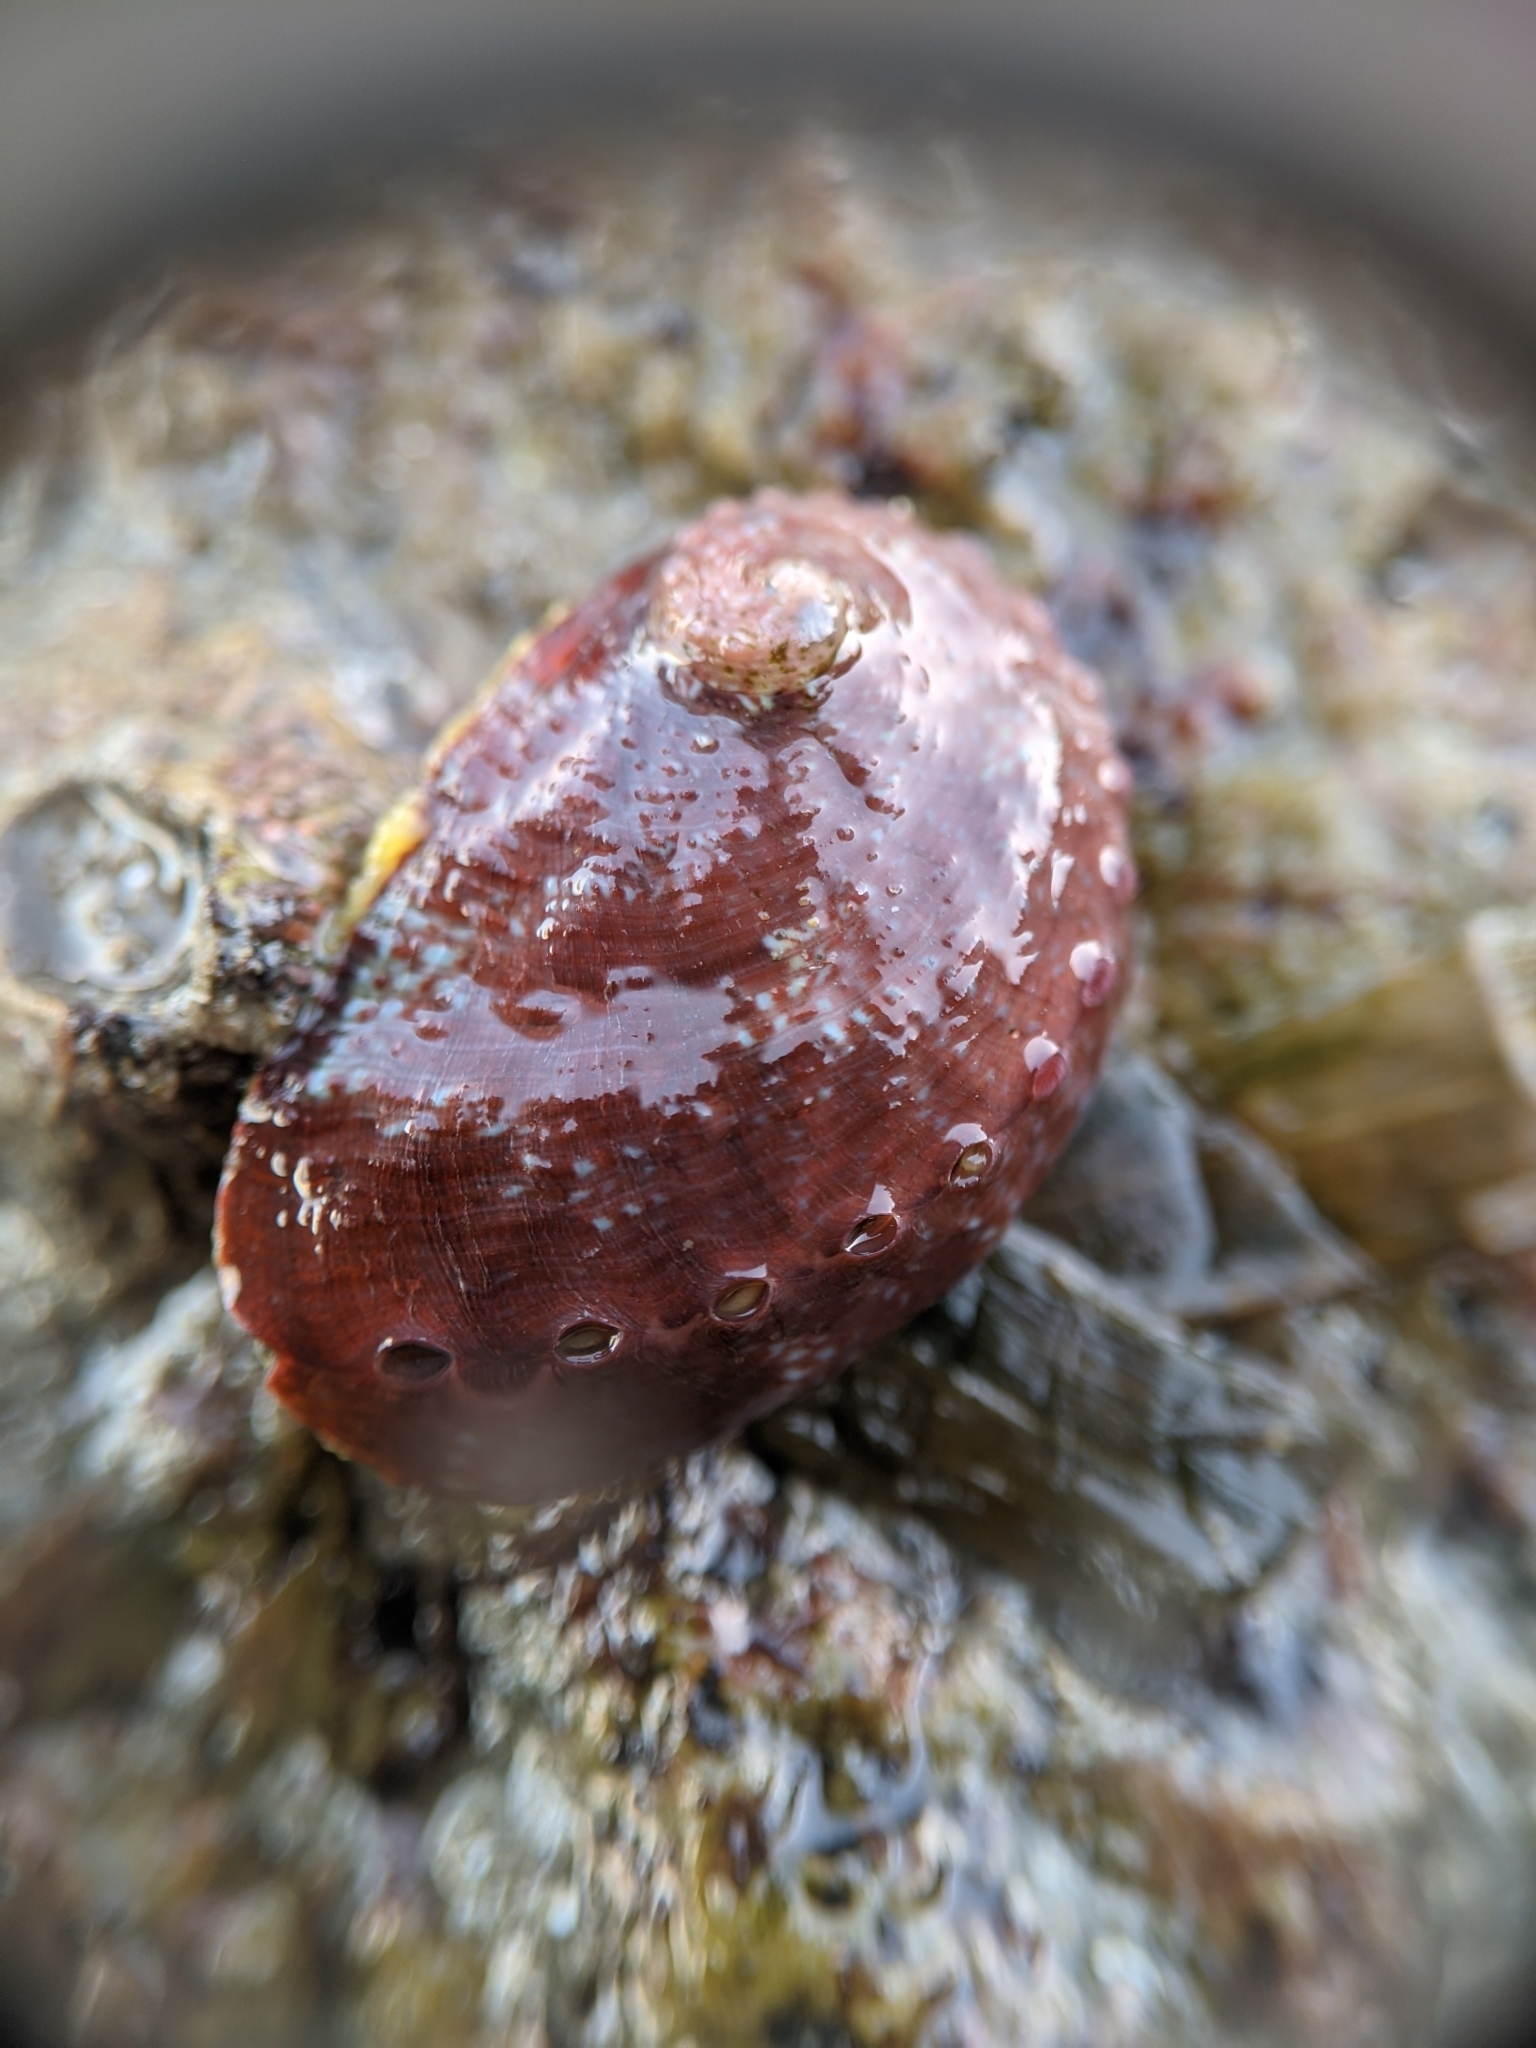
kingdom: Animalia
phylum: Mollusca
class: Gastropoda
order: Lepetellida
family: Haliotidae
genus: Haliotis
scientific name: Haliotis rufescens
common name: Red abalone
